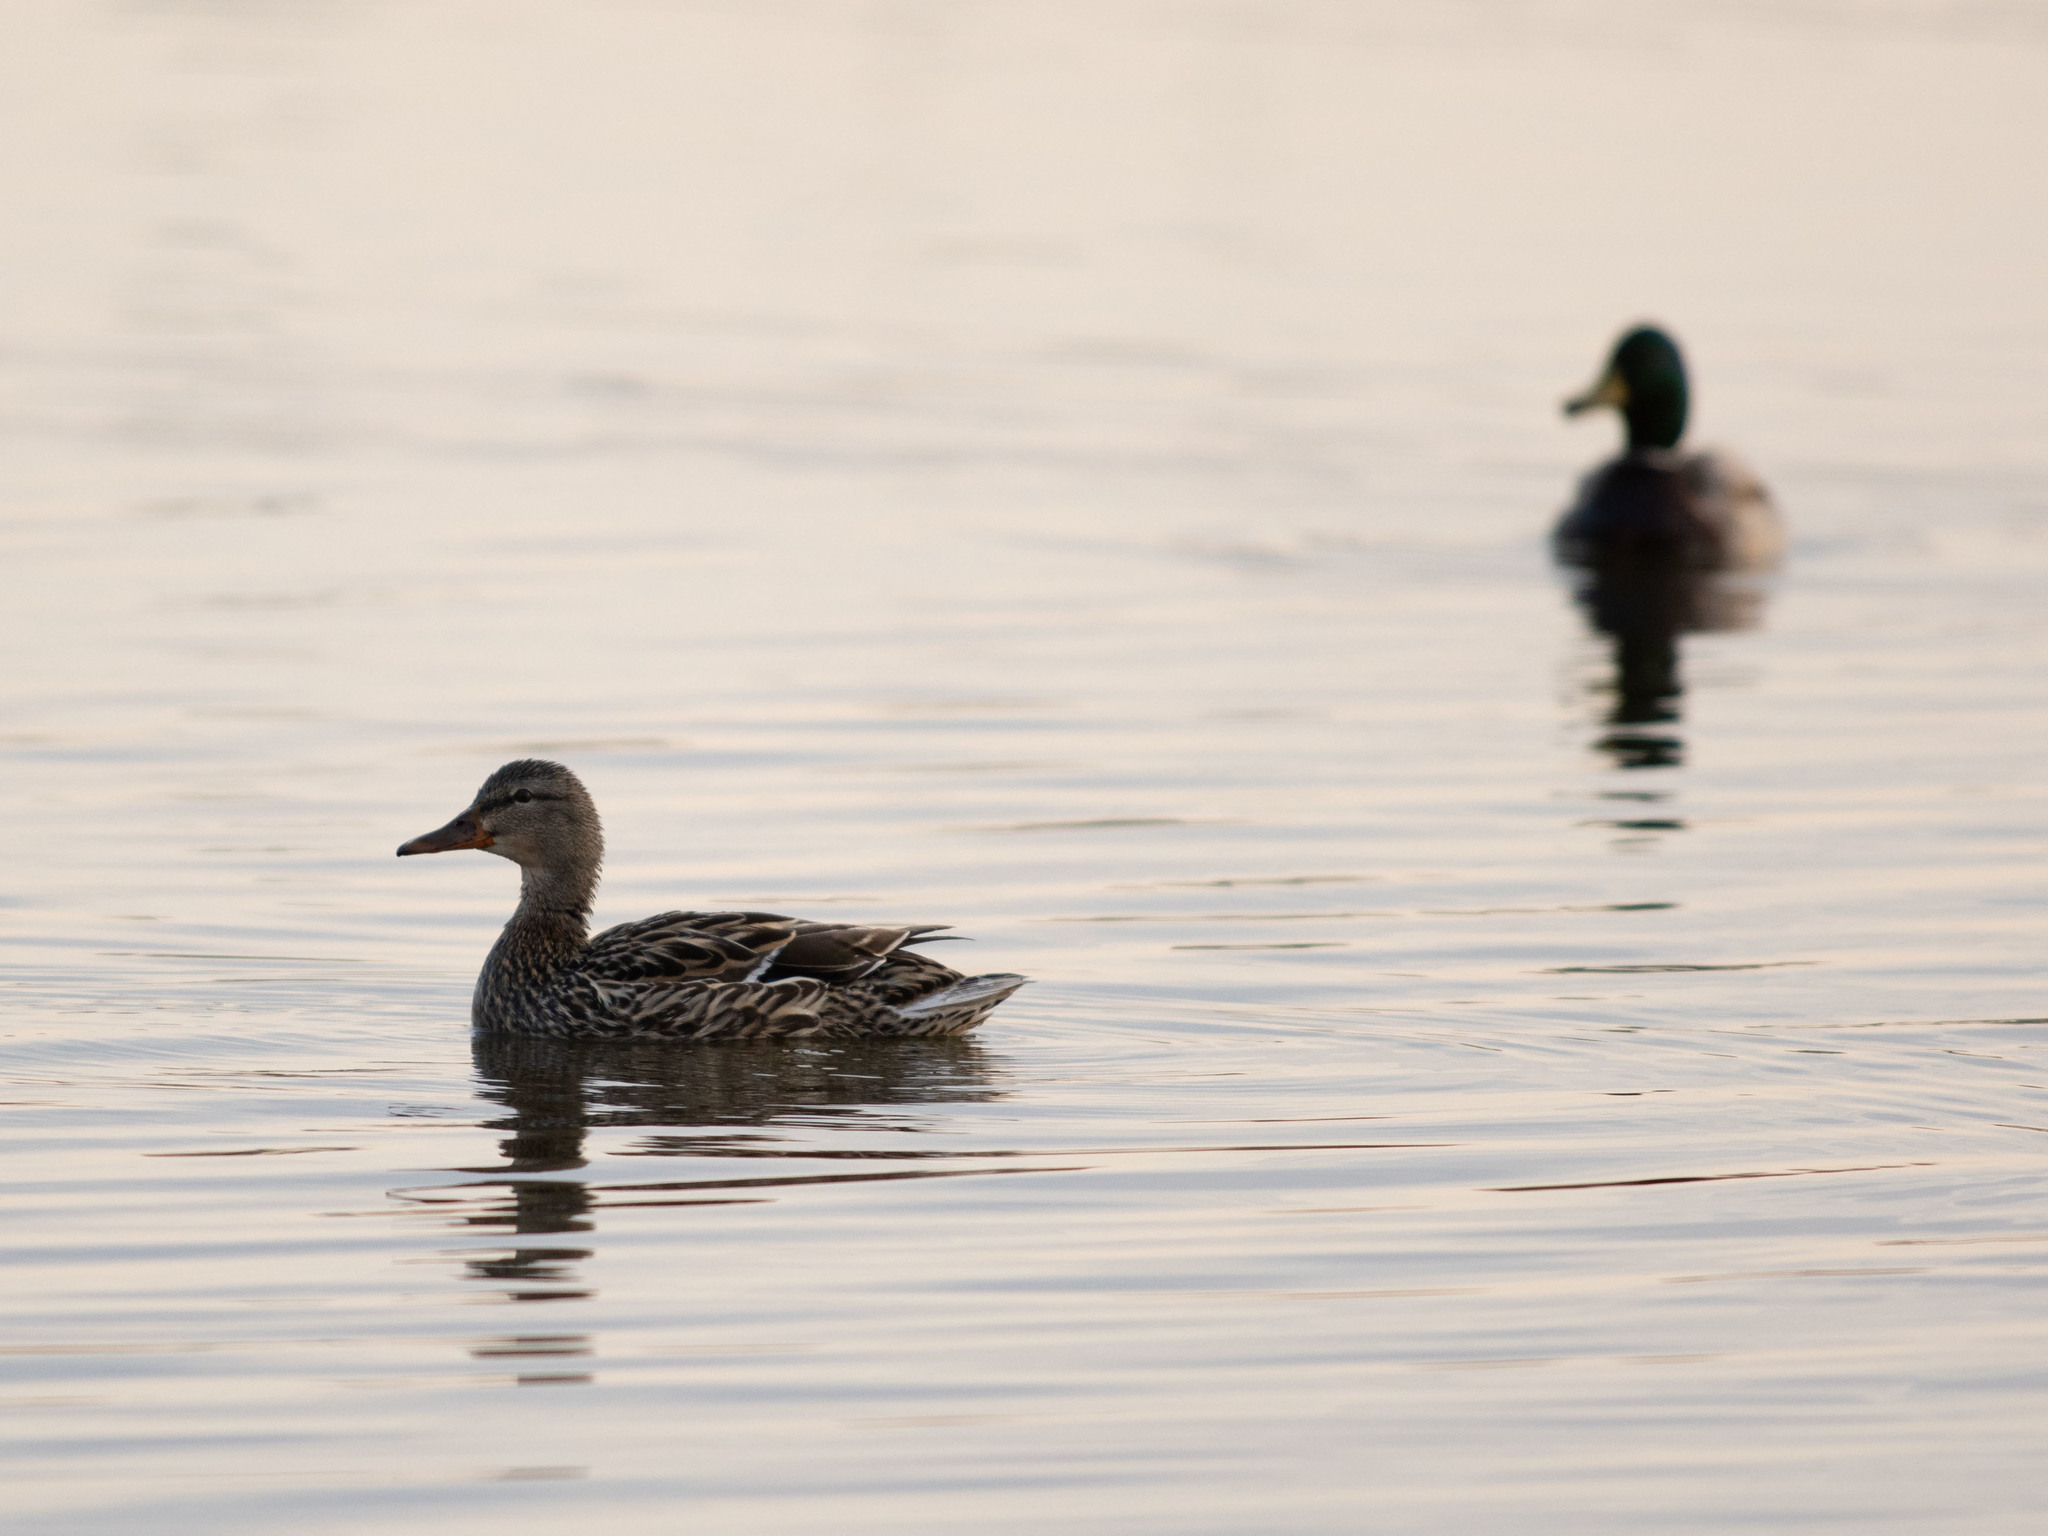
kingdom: Animalia
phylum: Chordata
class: Aves
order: Anseriformes
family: Anatidae
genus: Anas
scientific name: Anas platyrhynchos
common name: Mallard
